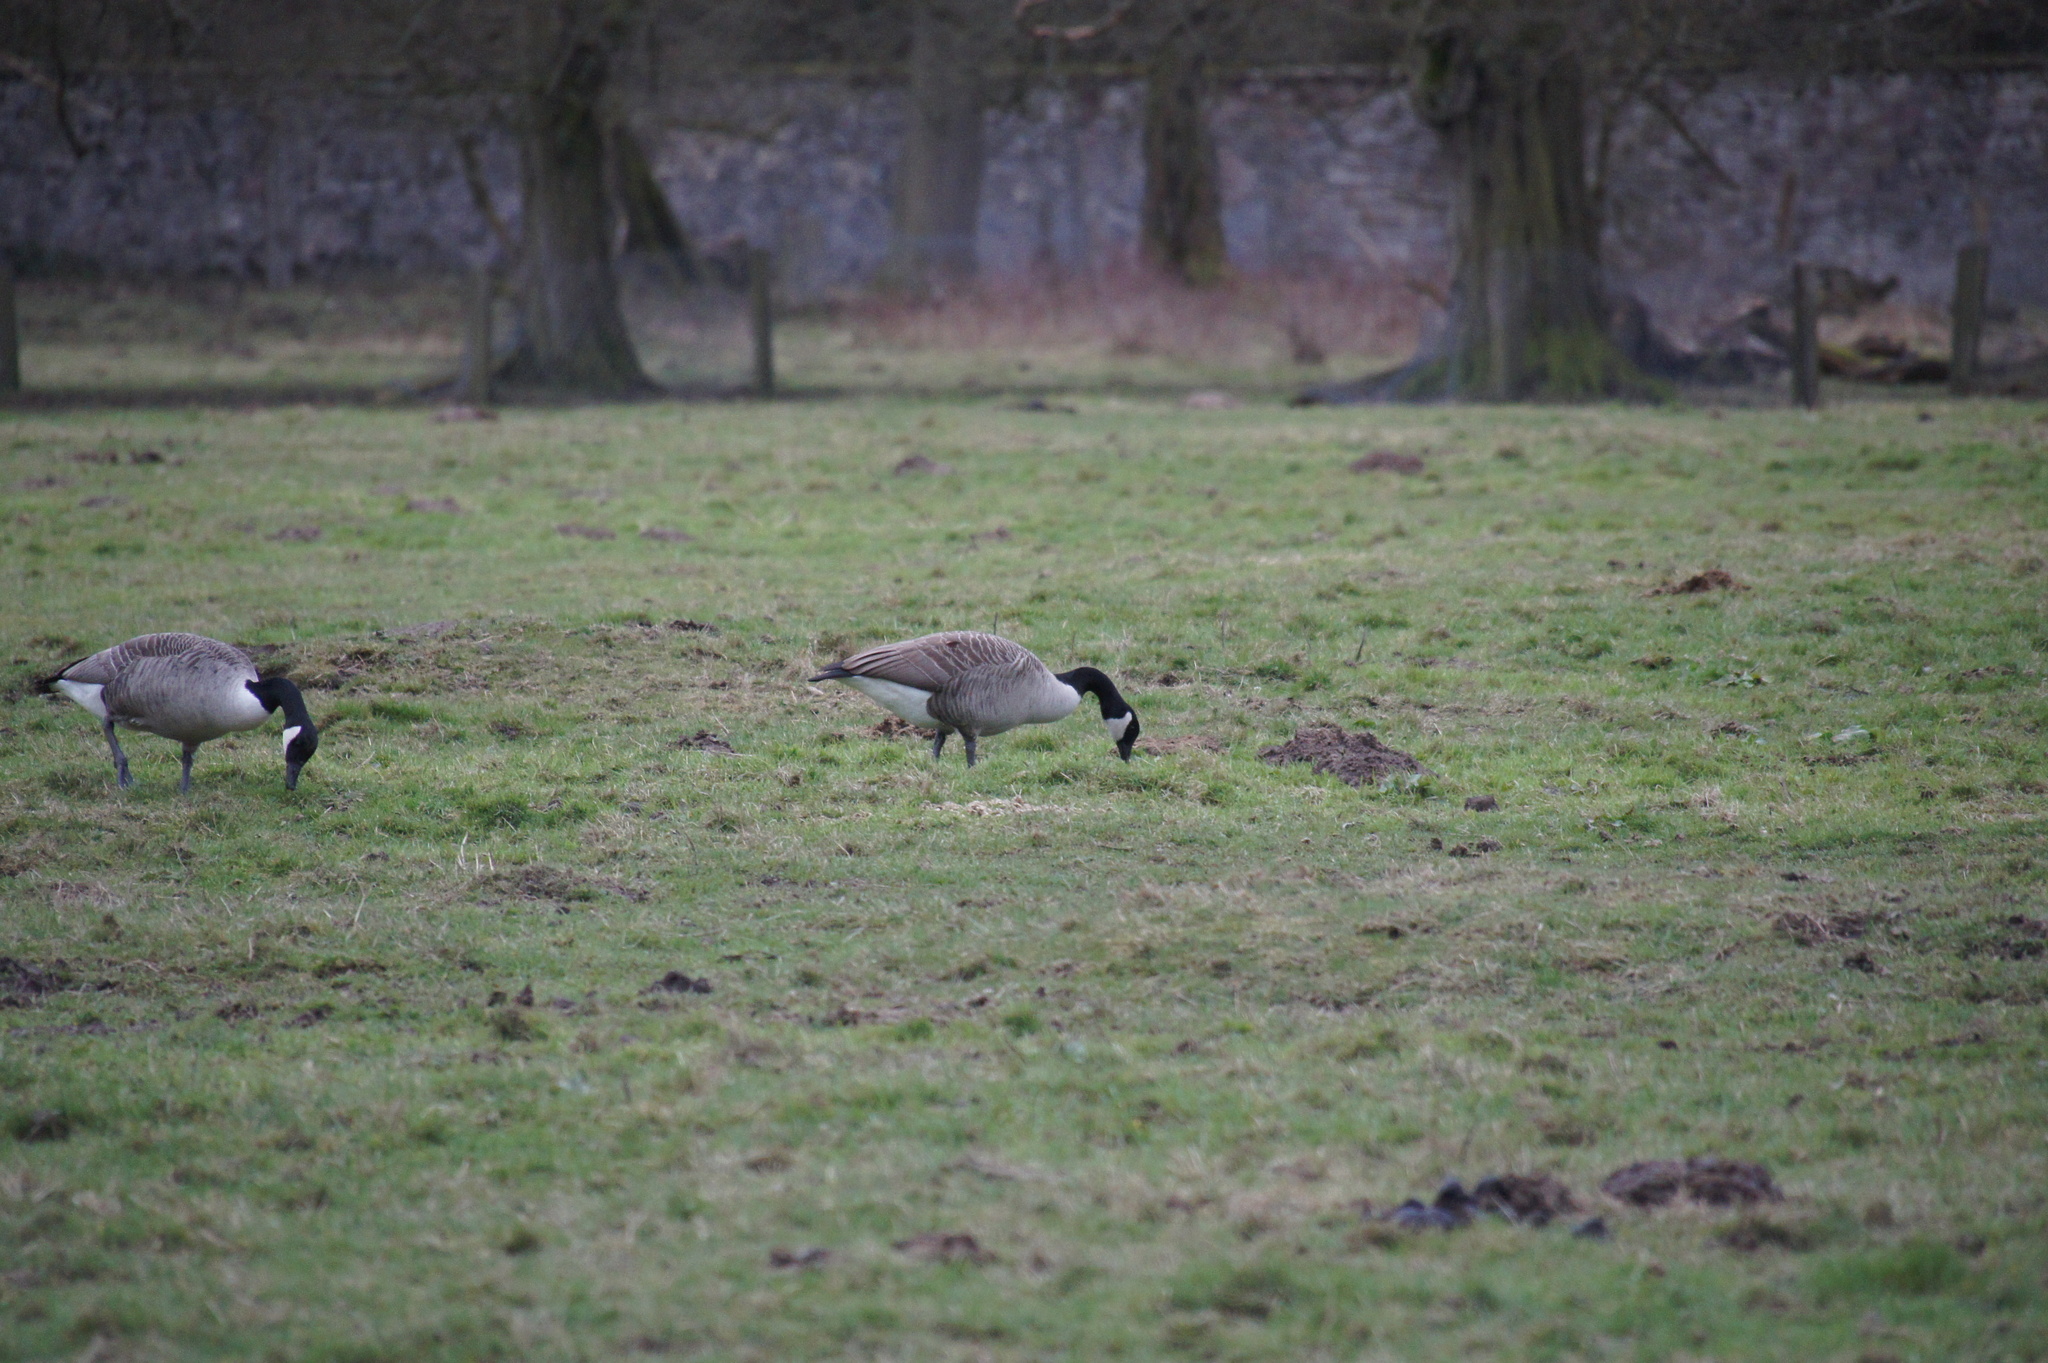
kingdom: Animalia
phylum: Chordata
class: Aves
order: Anseriformes
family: Anatidae
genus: Branta
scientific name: Branta canadensis
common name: Canada goose
